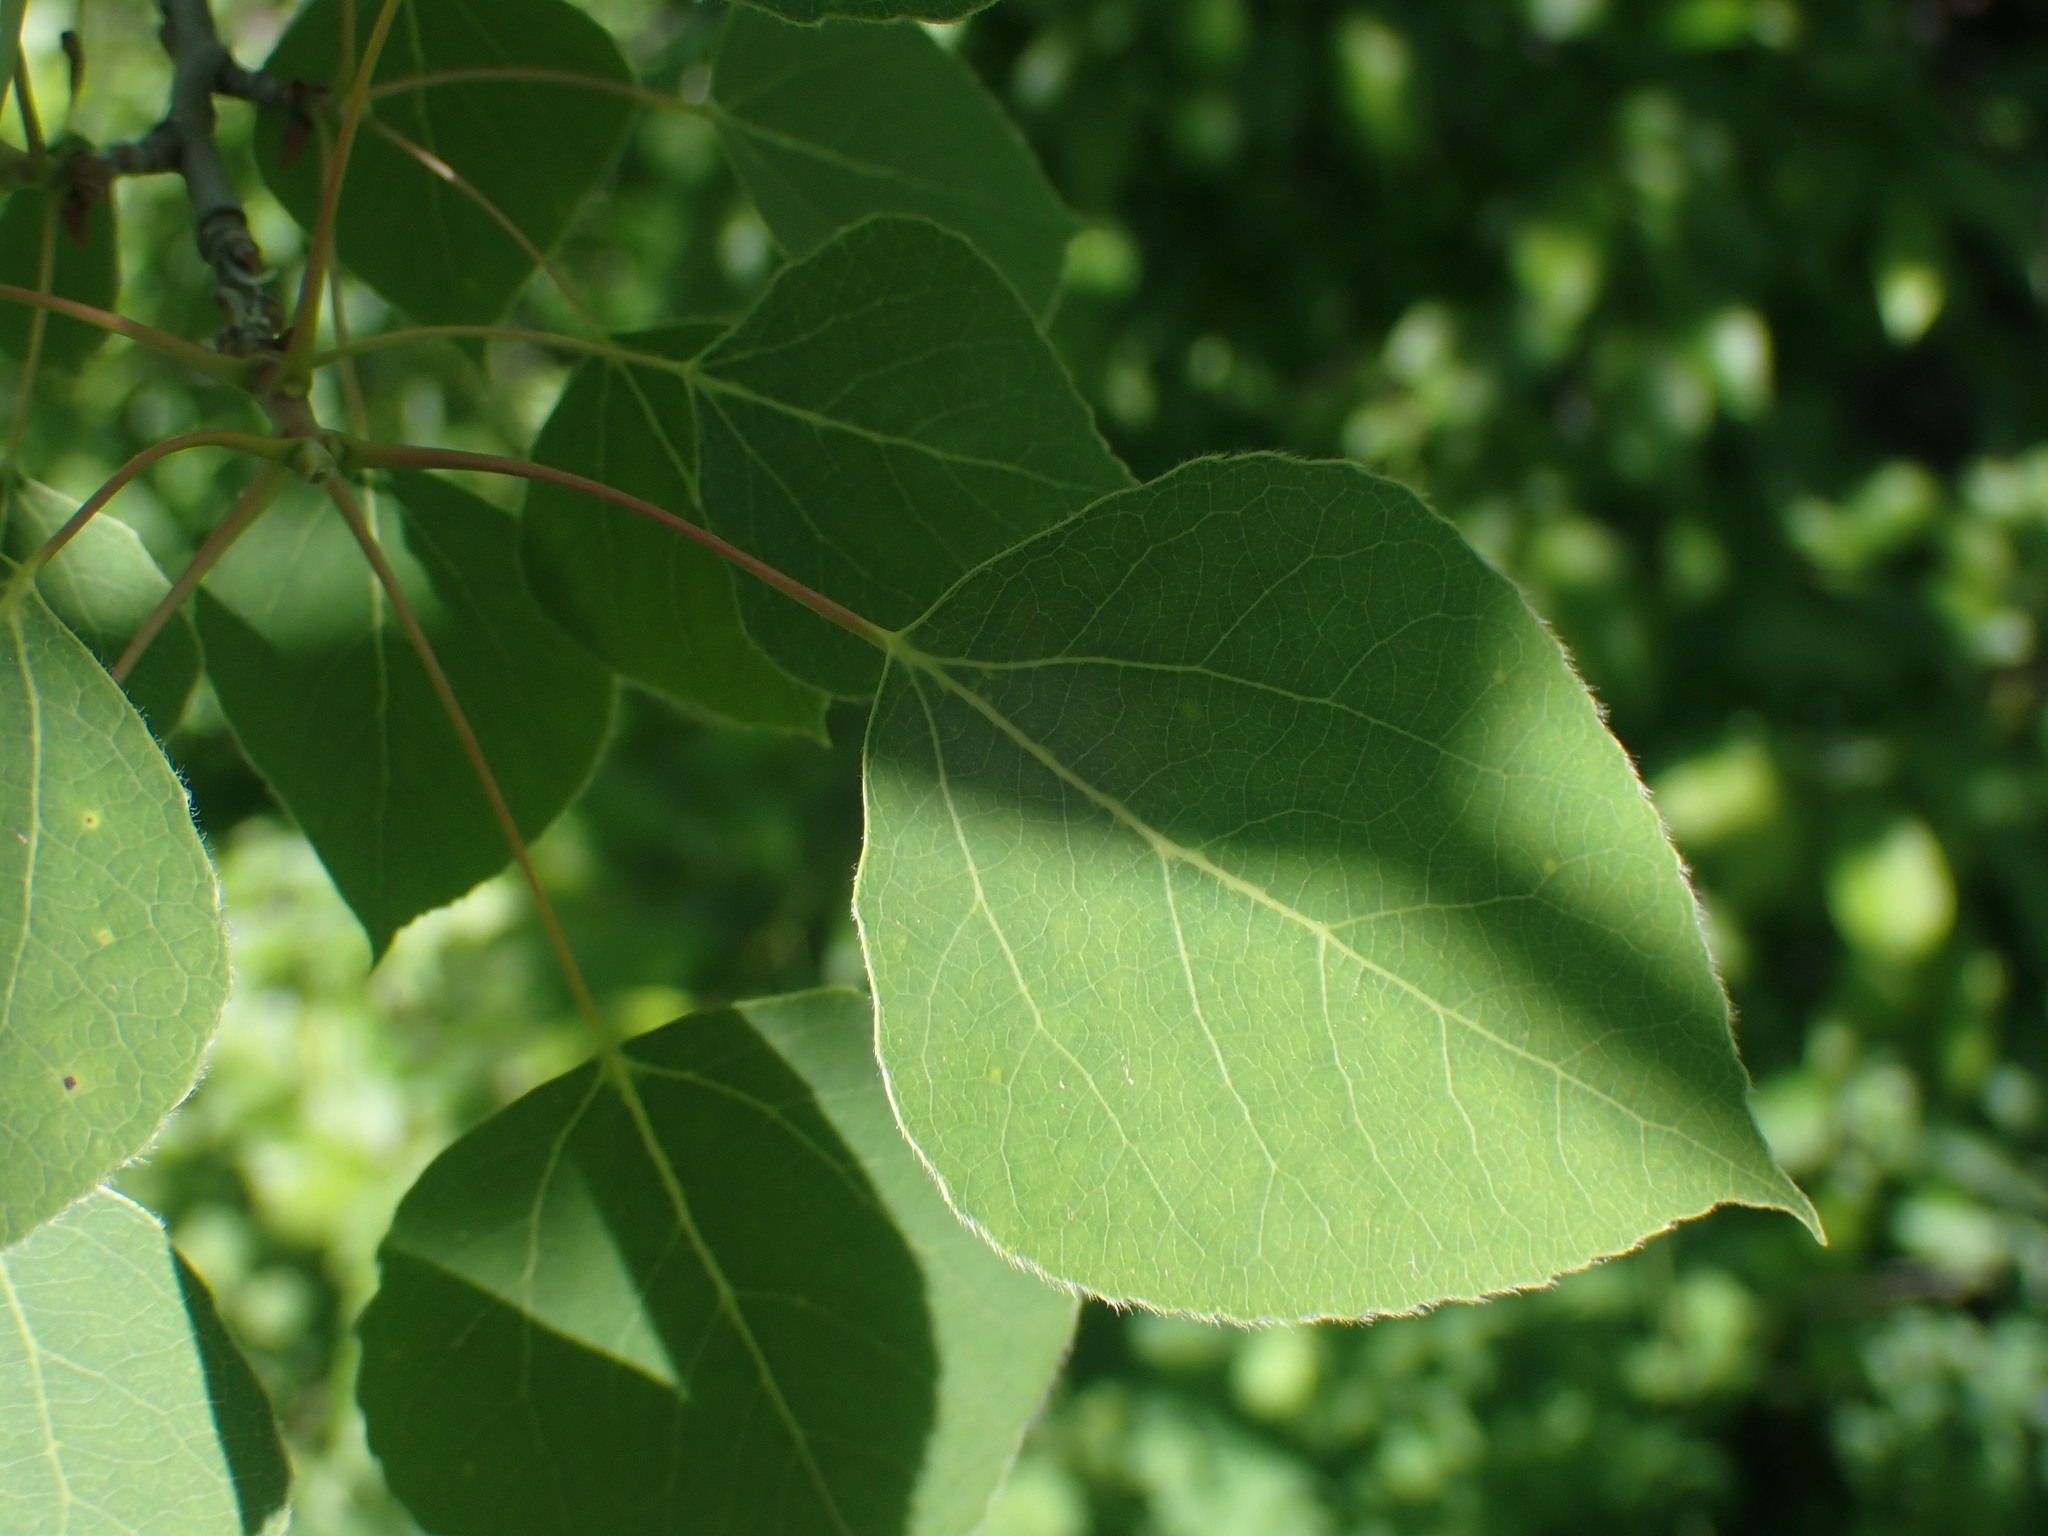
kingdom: Plantae
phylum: Tracheophyta
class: Magnoliopsida
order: Malpighiales
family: Salicaceae
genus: Populus
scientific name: Populus tremuloides
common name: Quaking aspen
